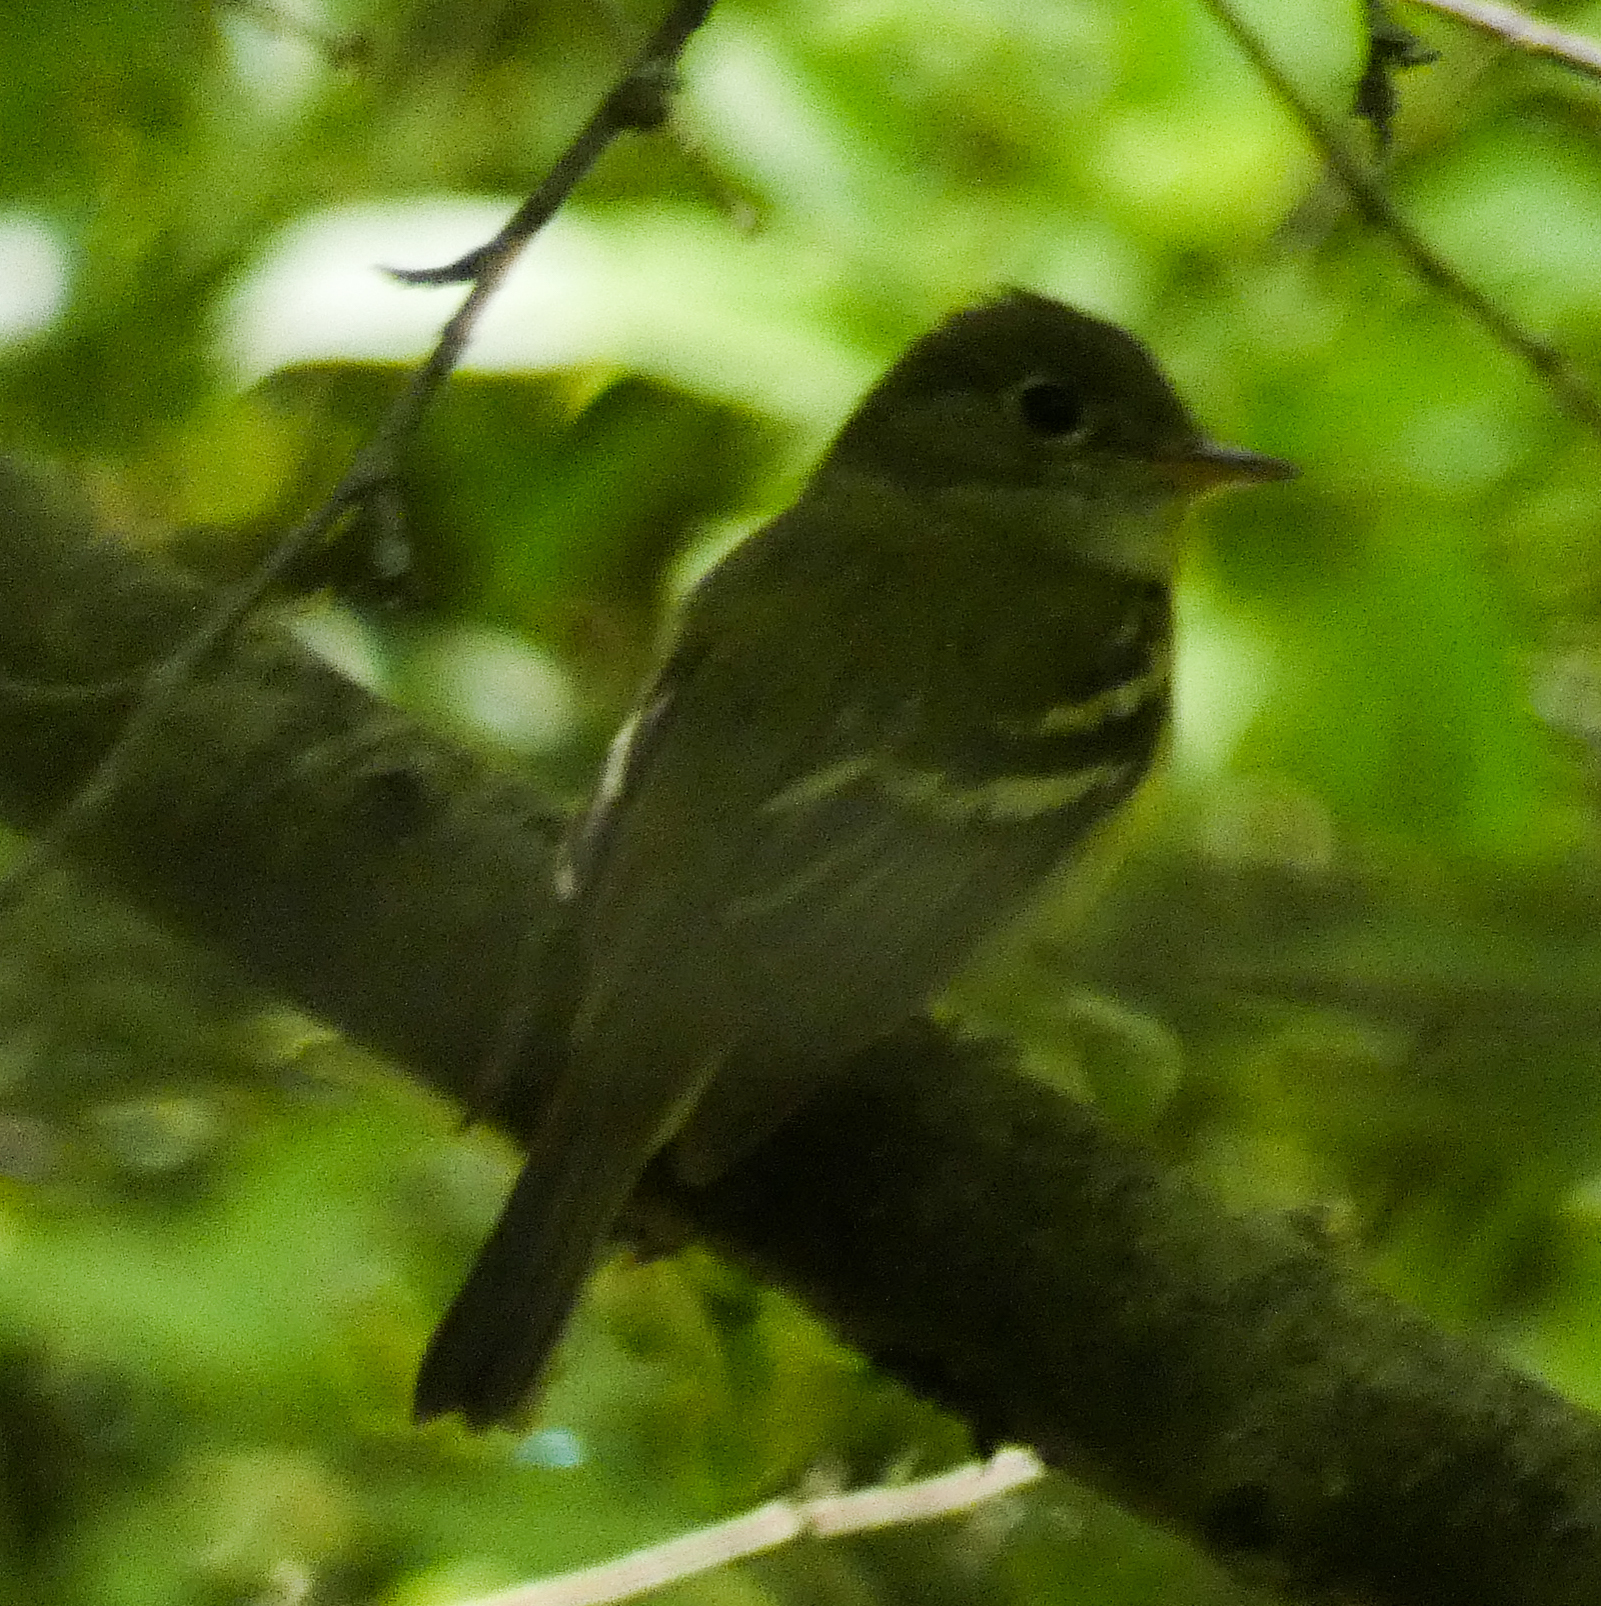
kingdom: Animalia
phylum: Chordata
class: Aves
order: Passeriformes
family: Tyrannidae
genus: Empidonax
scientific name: Empidonax virescens
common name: Acadian flycatcher
